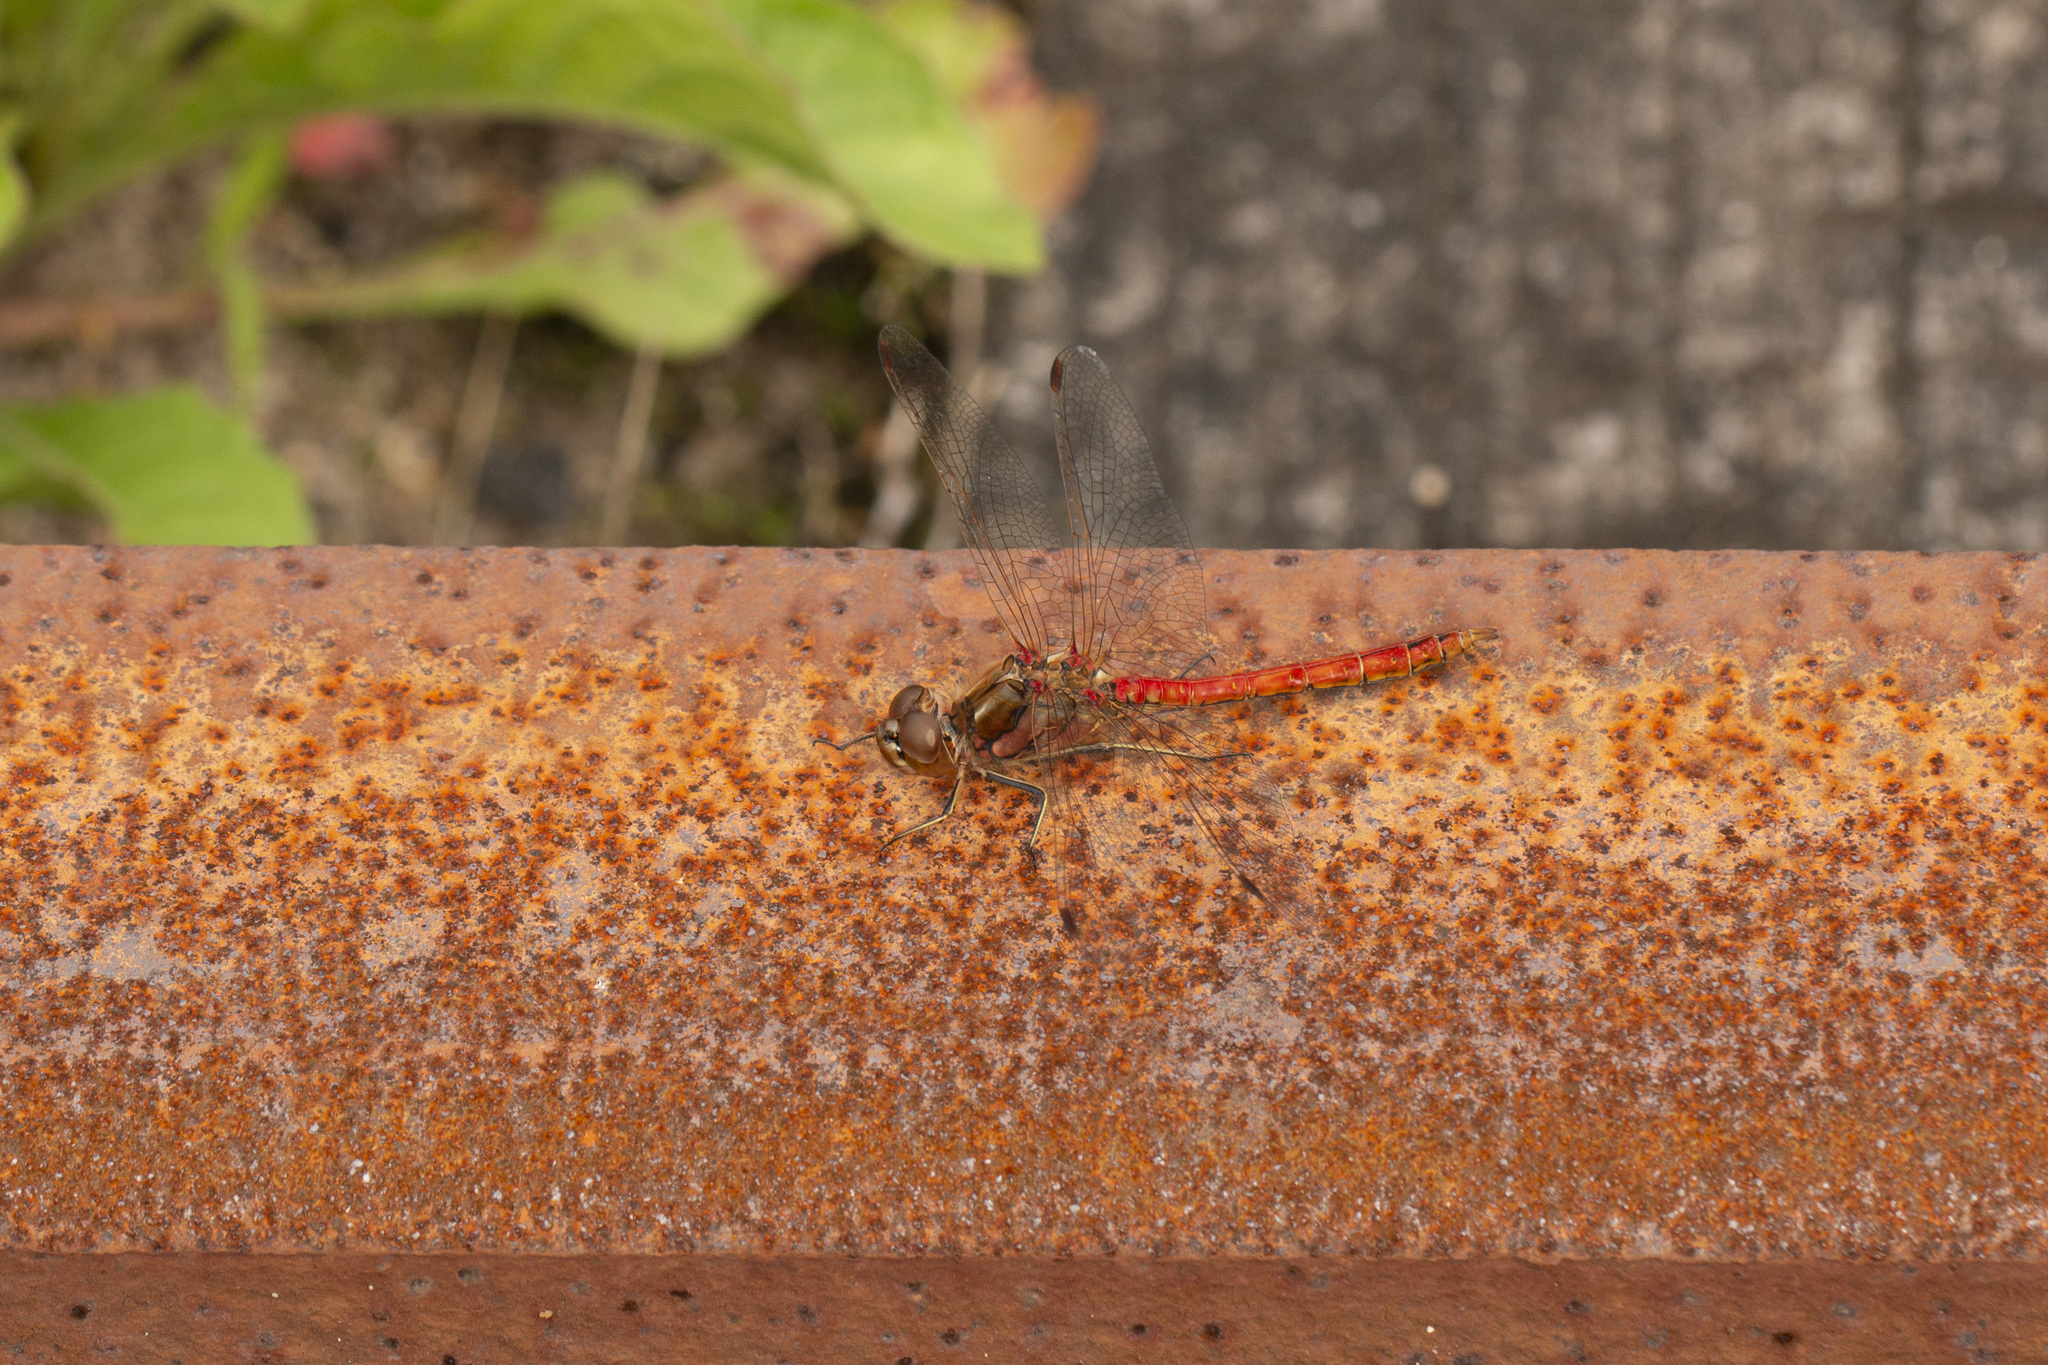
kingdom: Animalia
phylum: Arthropoda
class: Insecta
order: Odonata
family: Libellulidae
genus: Sympetrum
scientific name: Sympetrum vulgatum
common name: Vagrant darter
